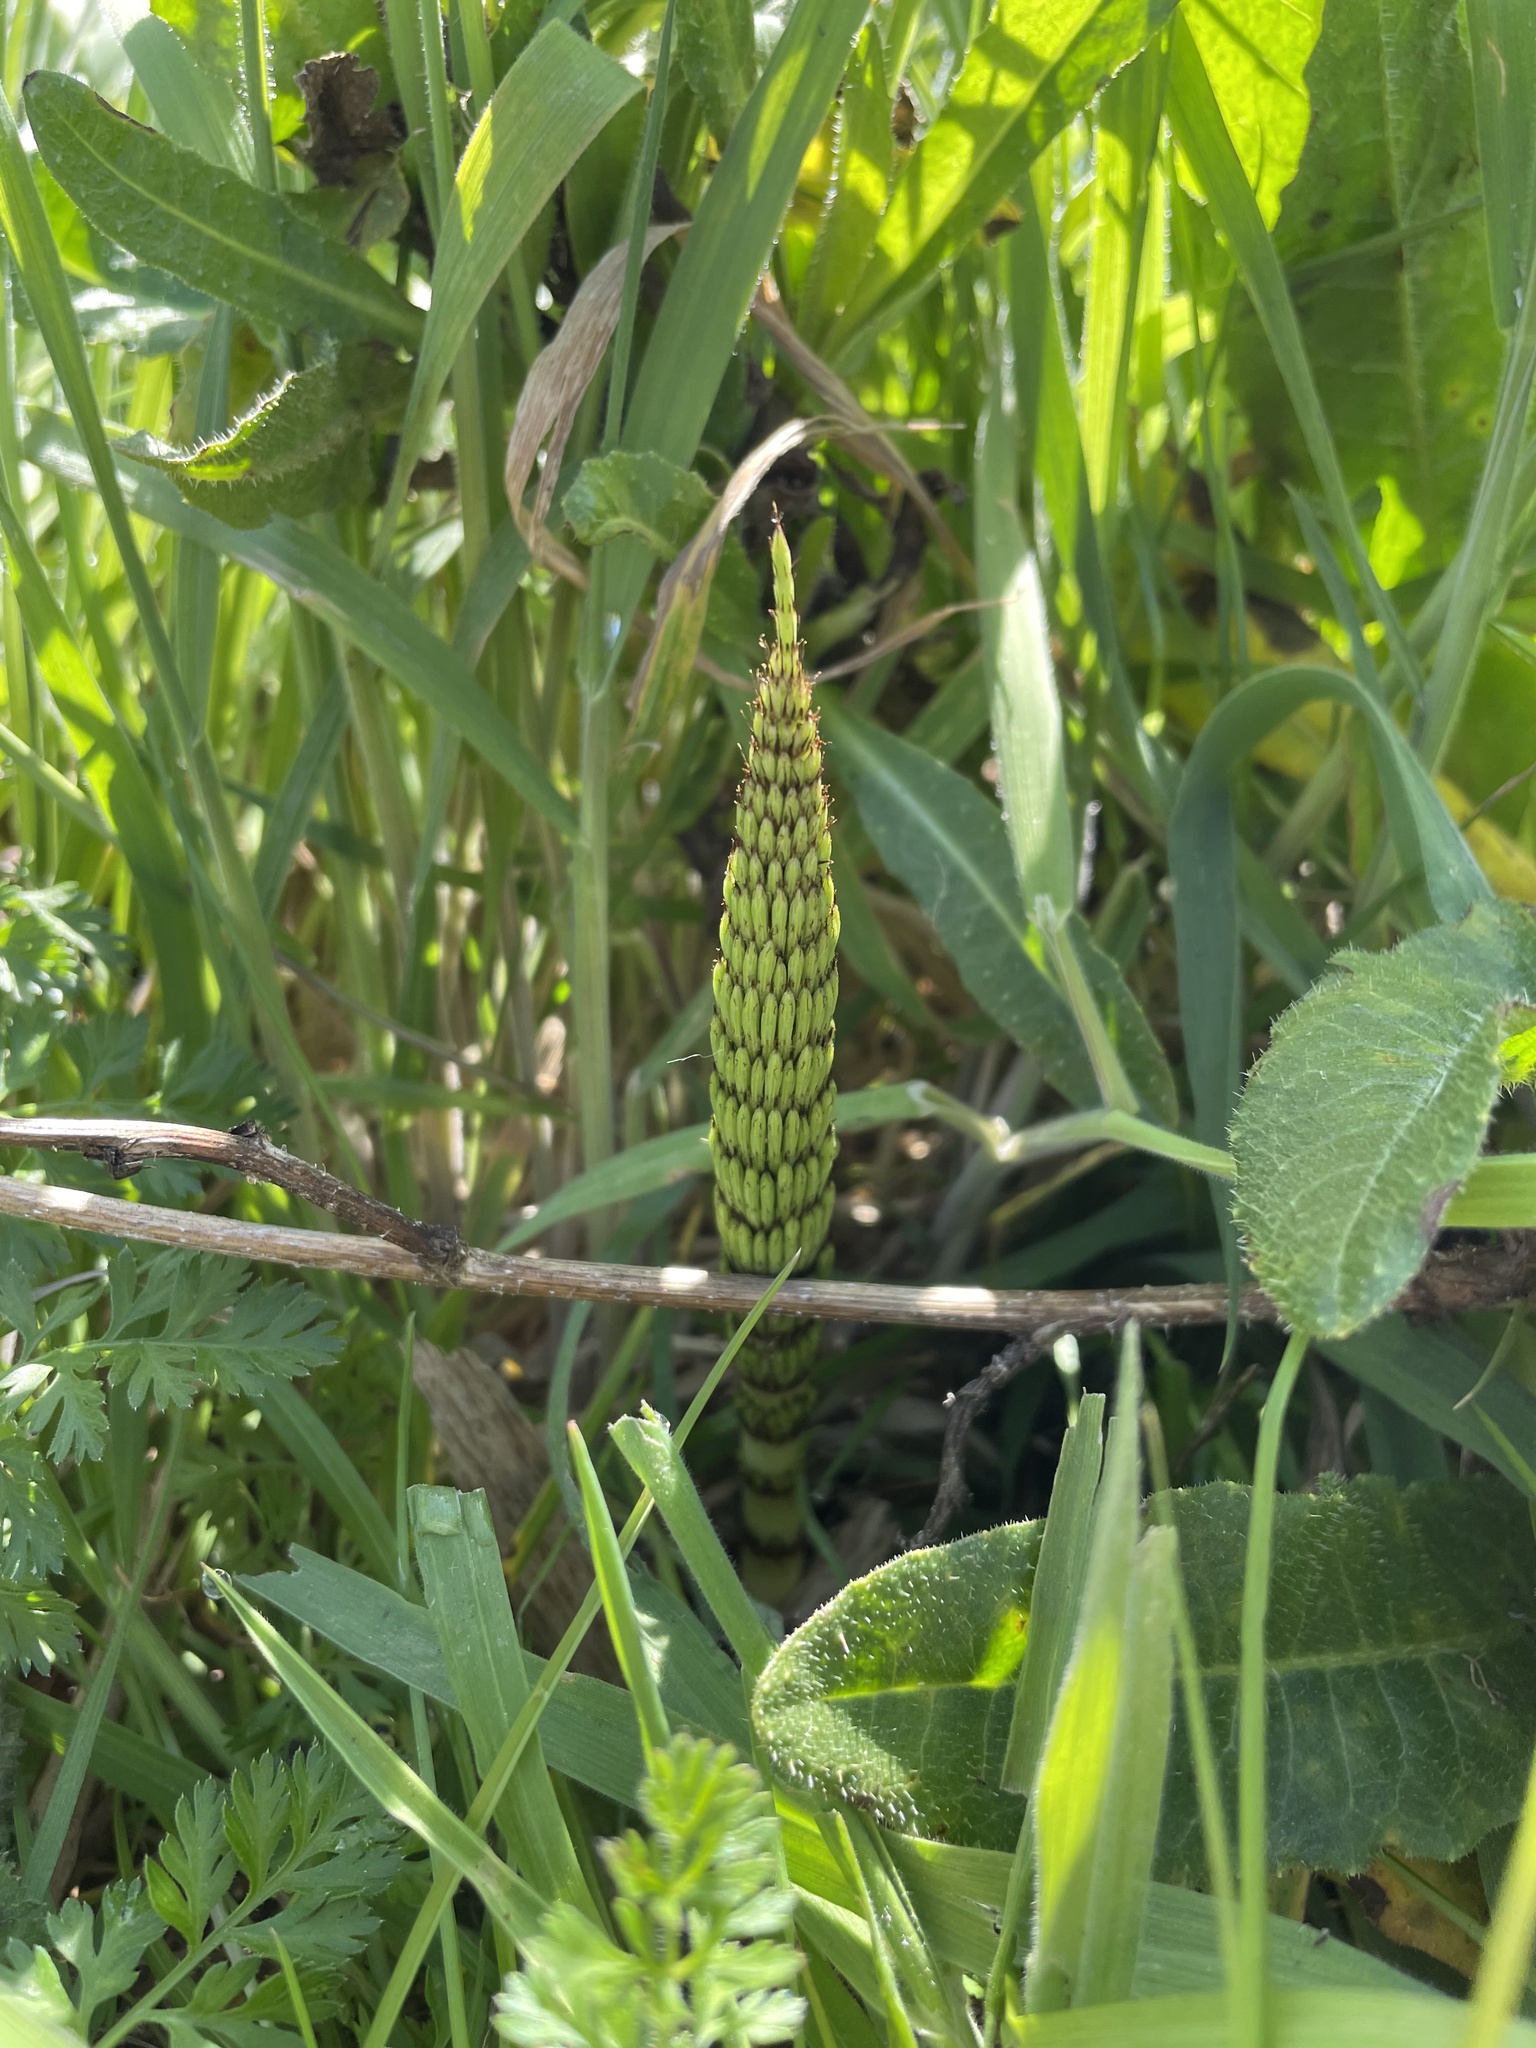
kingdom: Plantae
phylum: Tracheophyta
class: Polypodiopsida
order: Equisetales
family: Equisetaceae
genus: Equisetum
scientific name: Equisetum braunii
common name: Braun's horsetail
